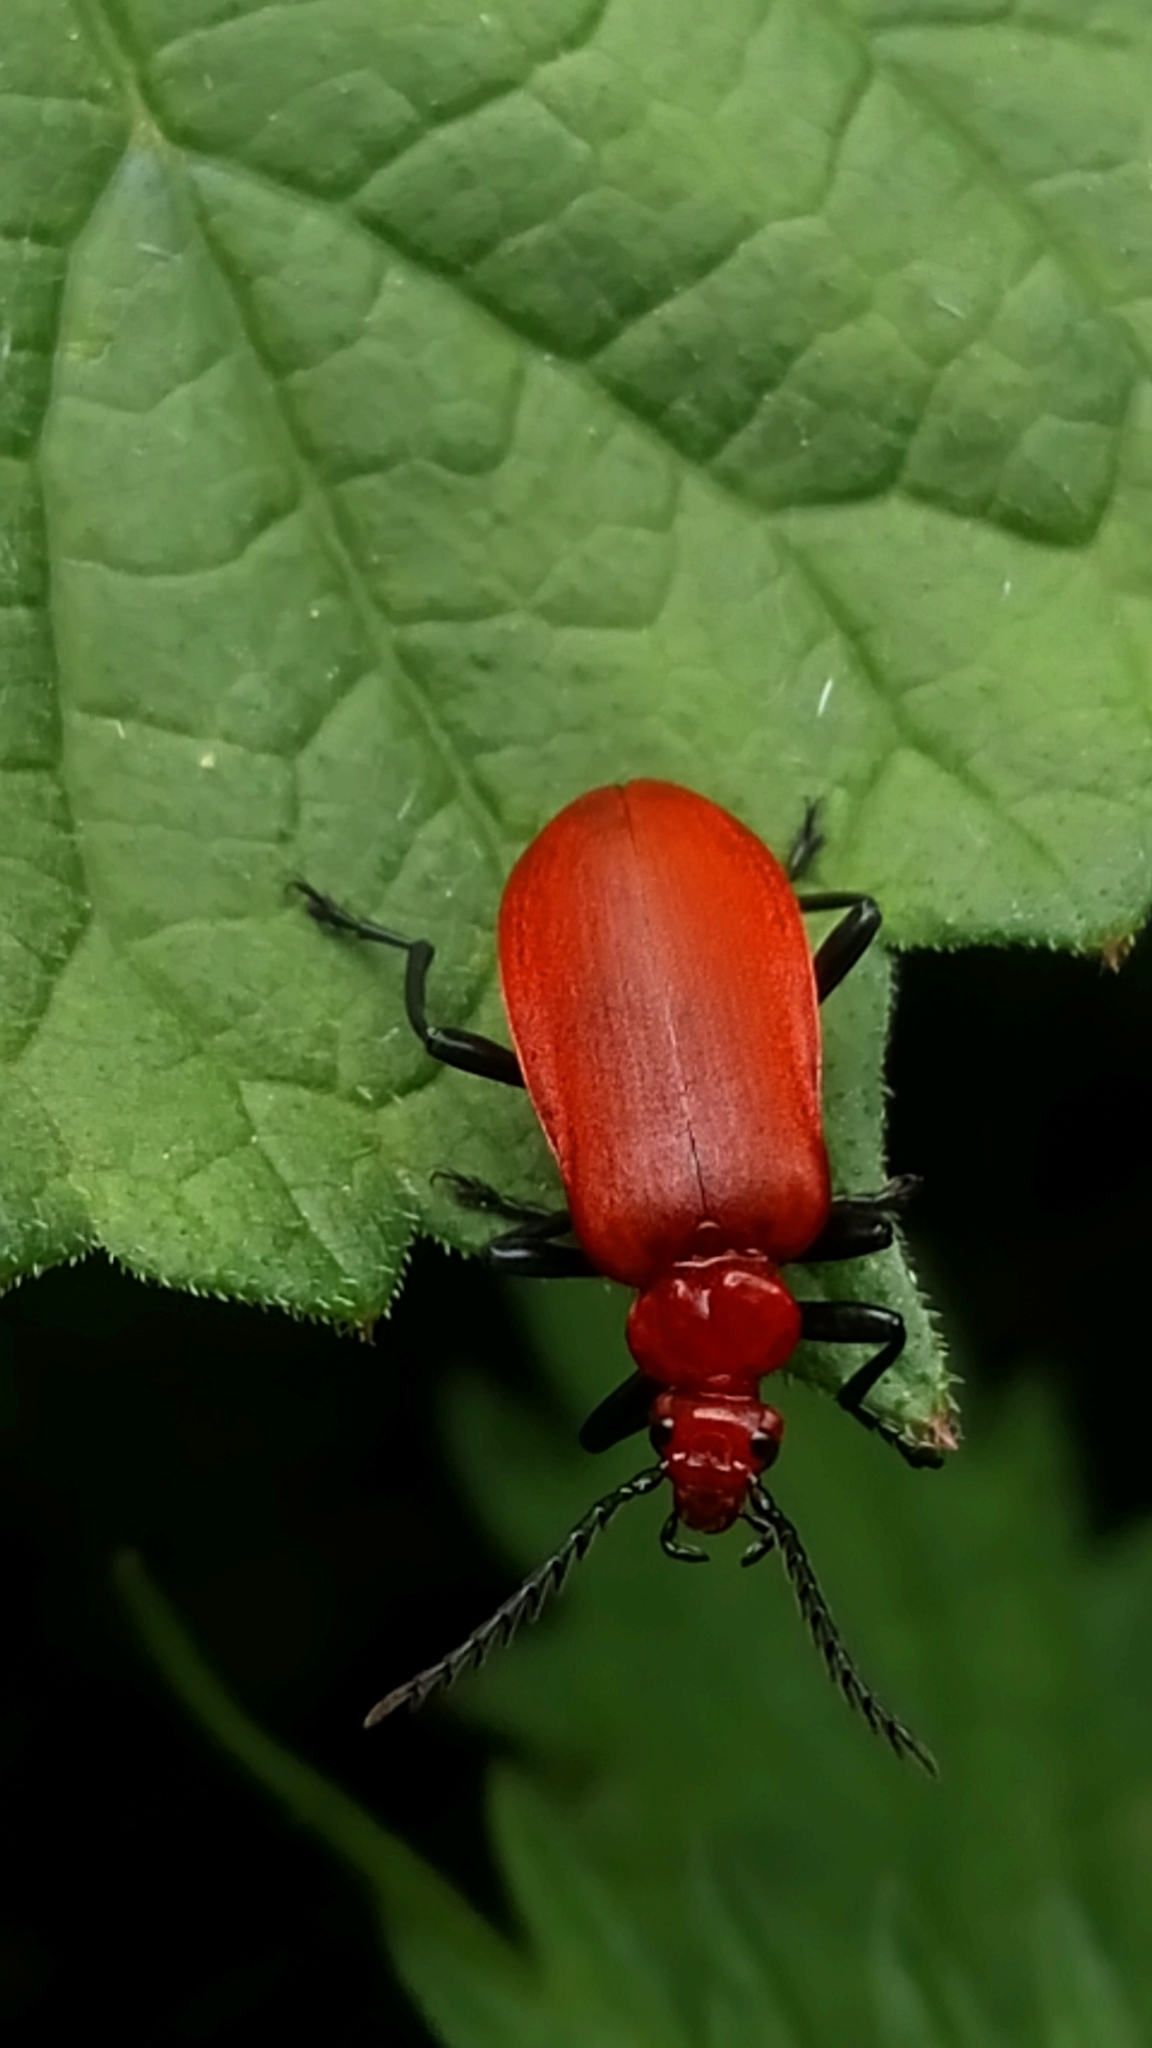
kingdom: Animalia
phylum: Arthropoda
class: Insecta
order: Coleoptera
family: Pyrochroidae
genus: Pyrochroa
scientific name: Pyrochroa serraticornis
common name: Red-headed cardinal beetle
